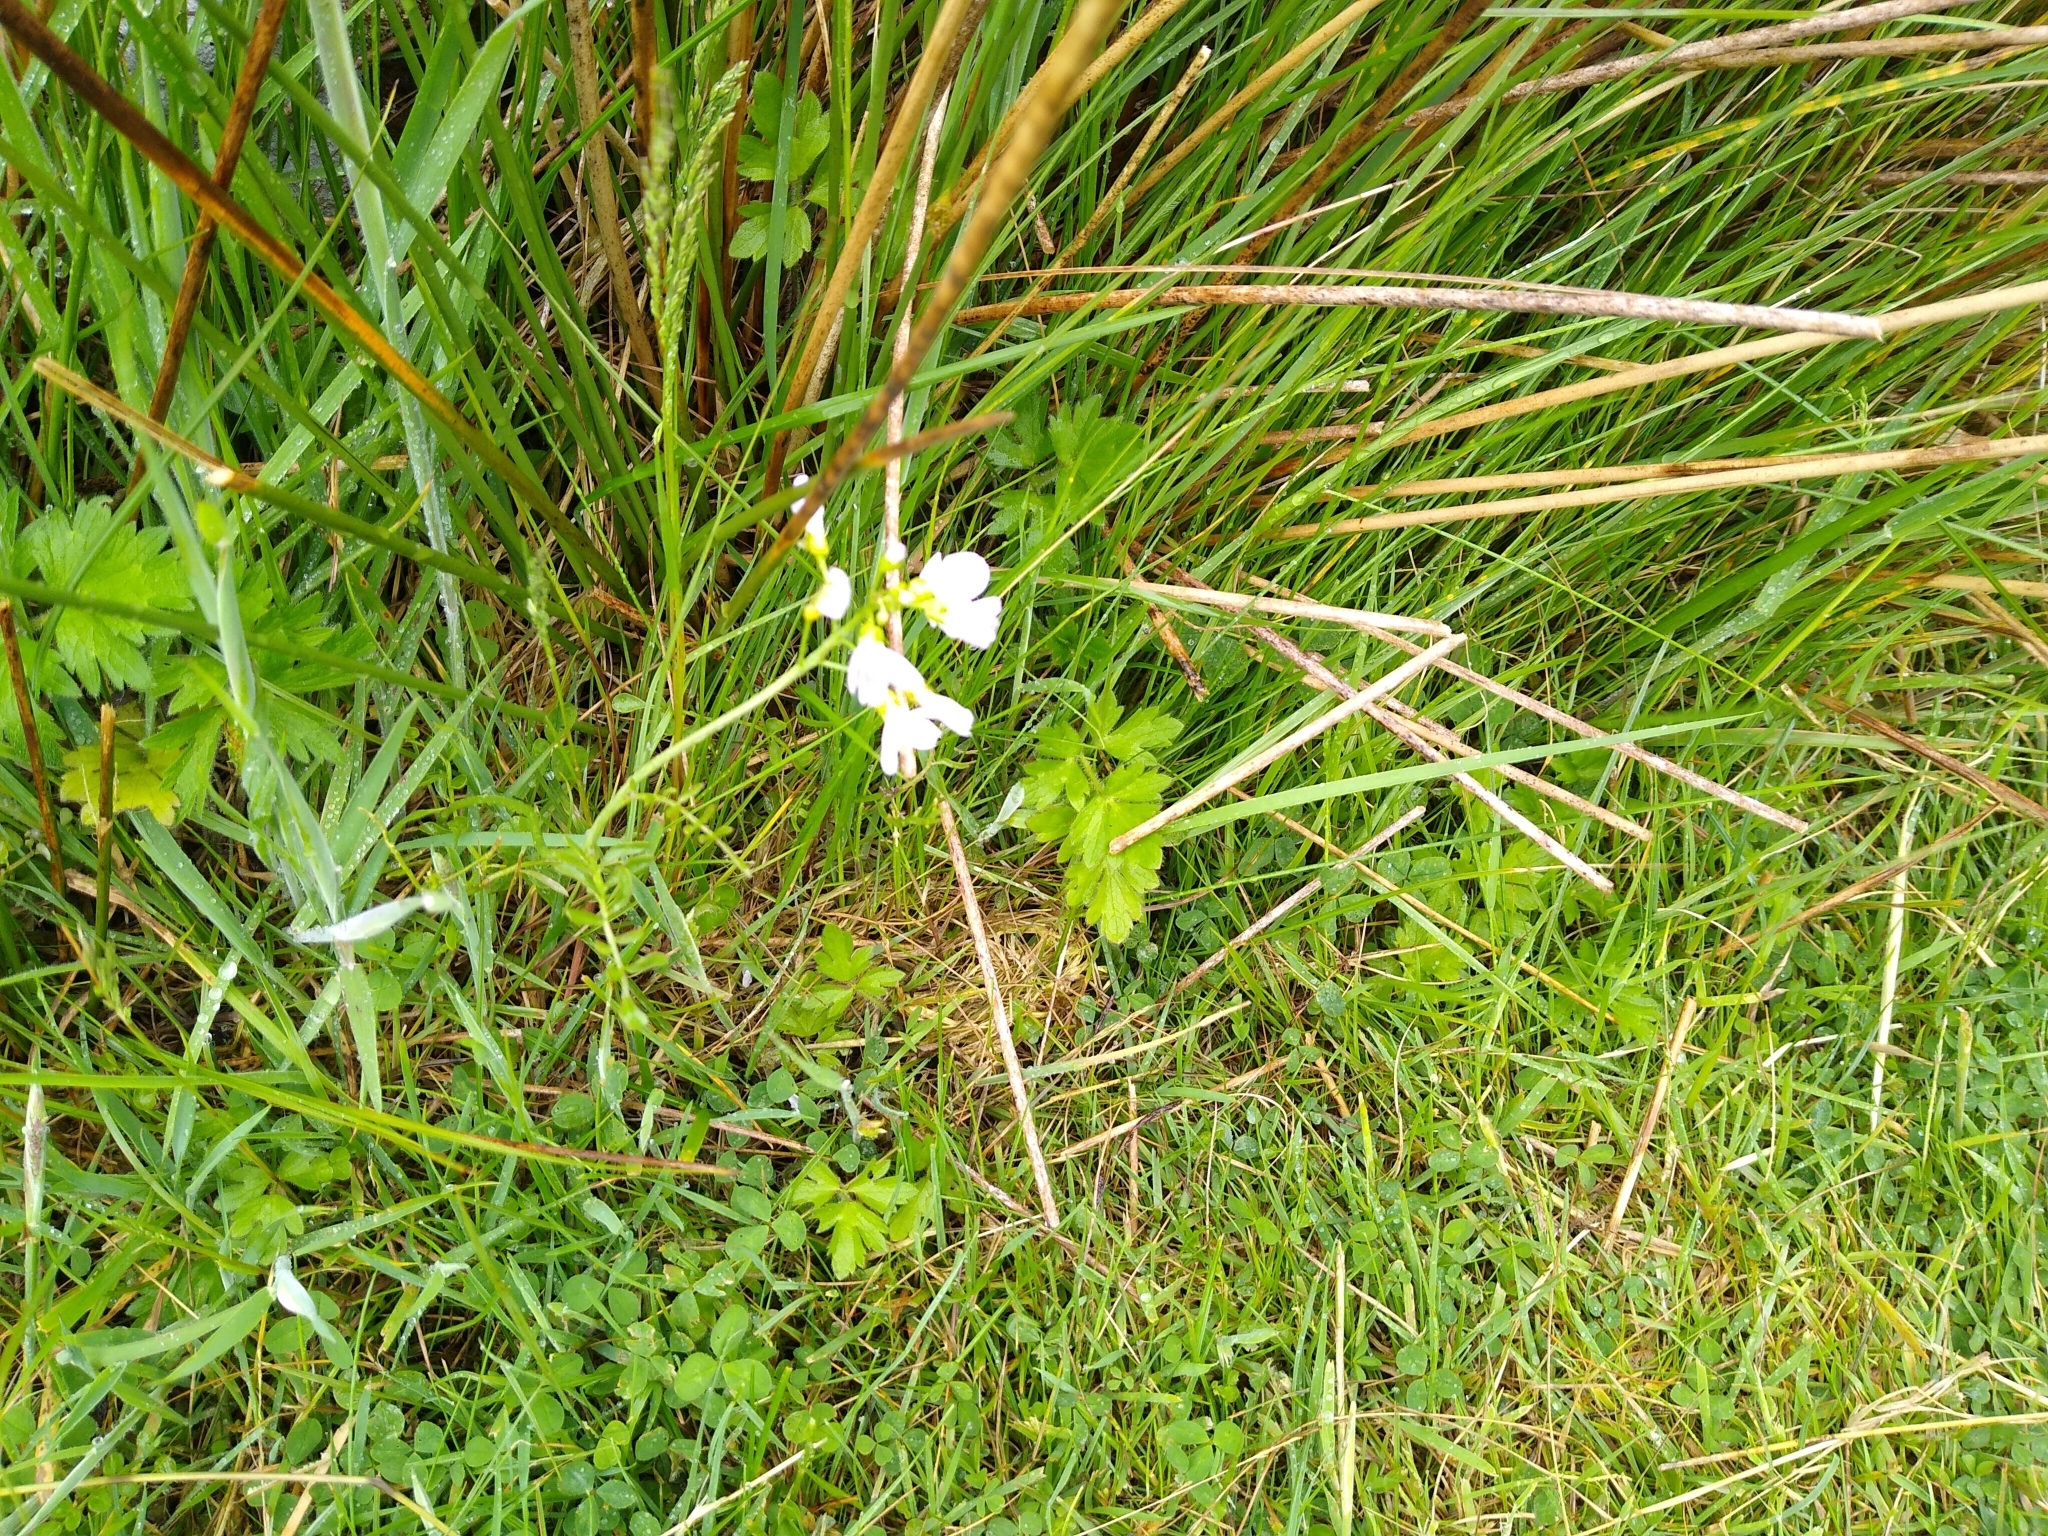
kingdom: Plantae
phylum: Tracheophyta
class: Magnoliopsida
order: Brassicales
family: Brassicaceae
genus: Cardamine
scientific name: Cardamine pratensis
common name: Cuckoo flower
